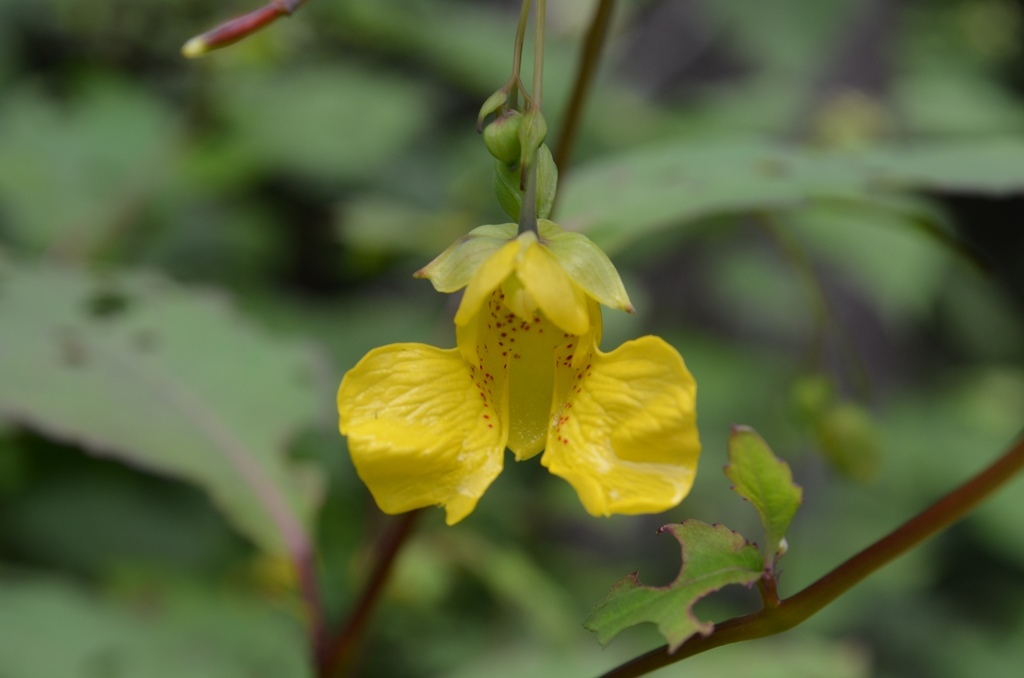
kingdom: Plantae
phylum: Tracheophyta
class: Magnoliopsida
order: Ericales
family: Balsaminaceae
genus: Impatiens
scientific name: Impatiens pallida
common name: Pale snapweed
